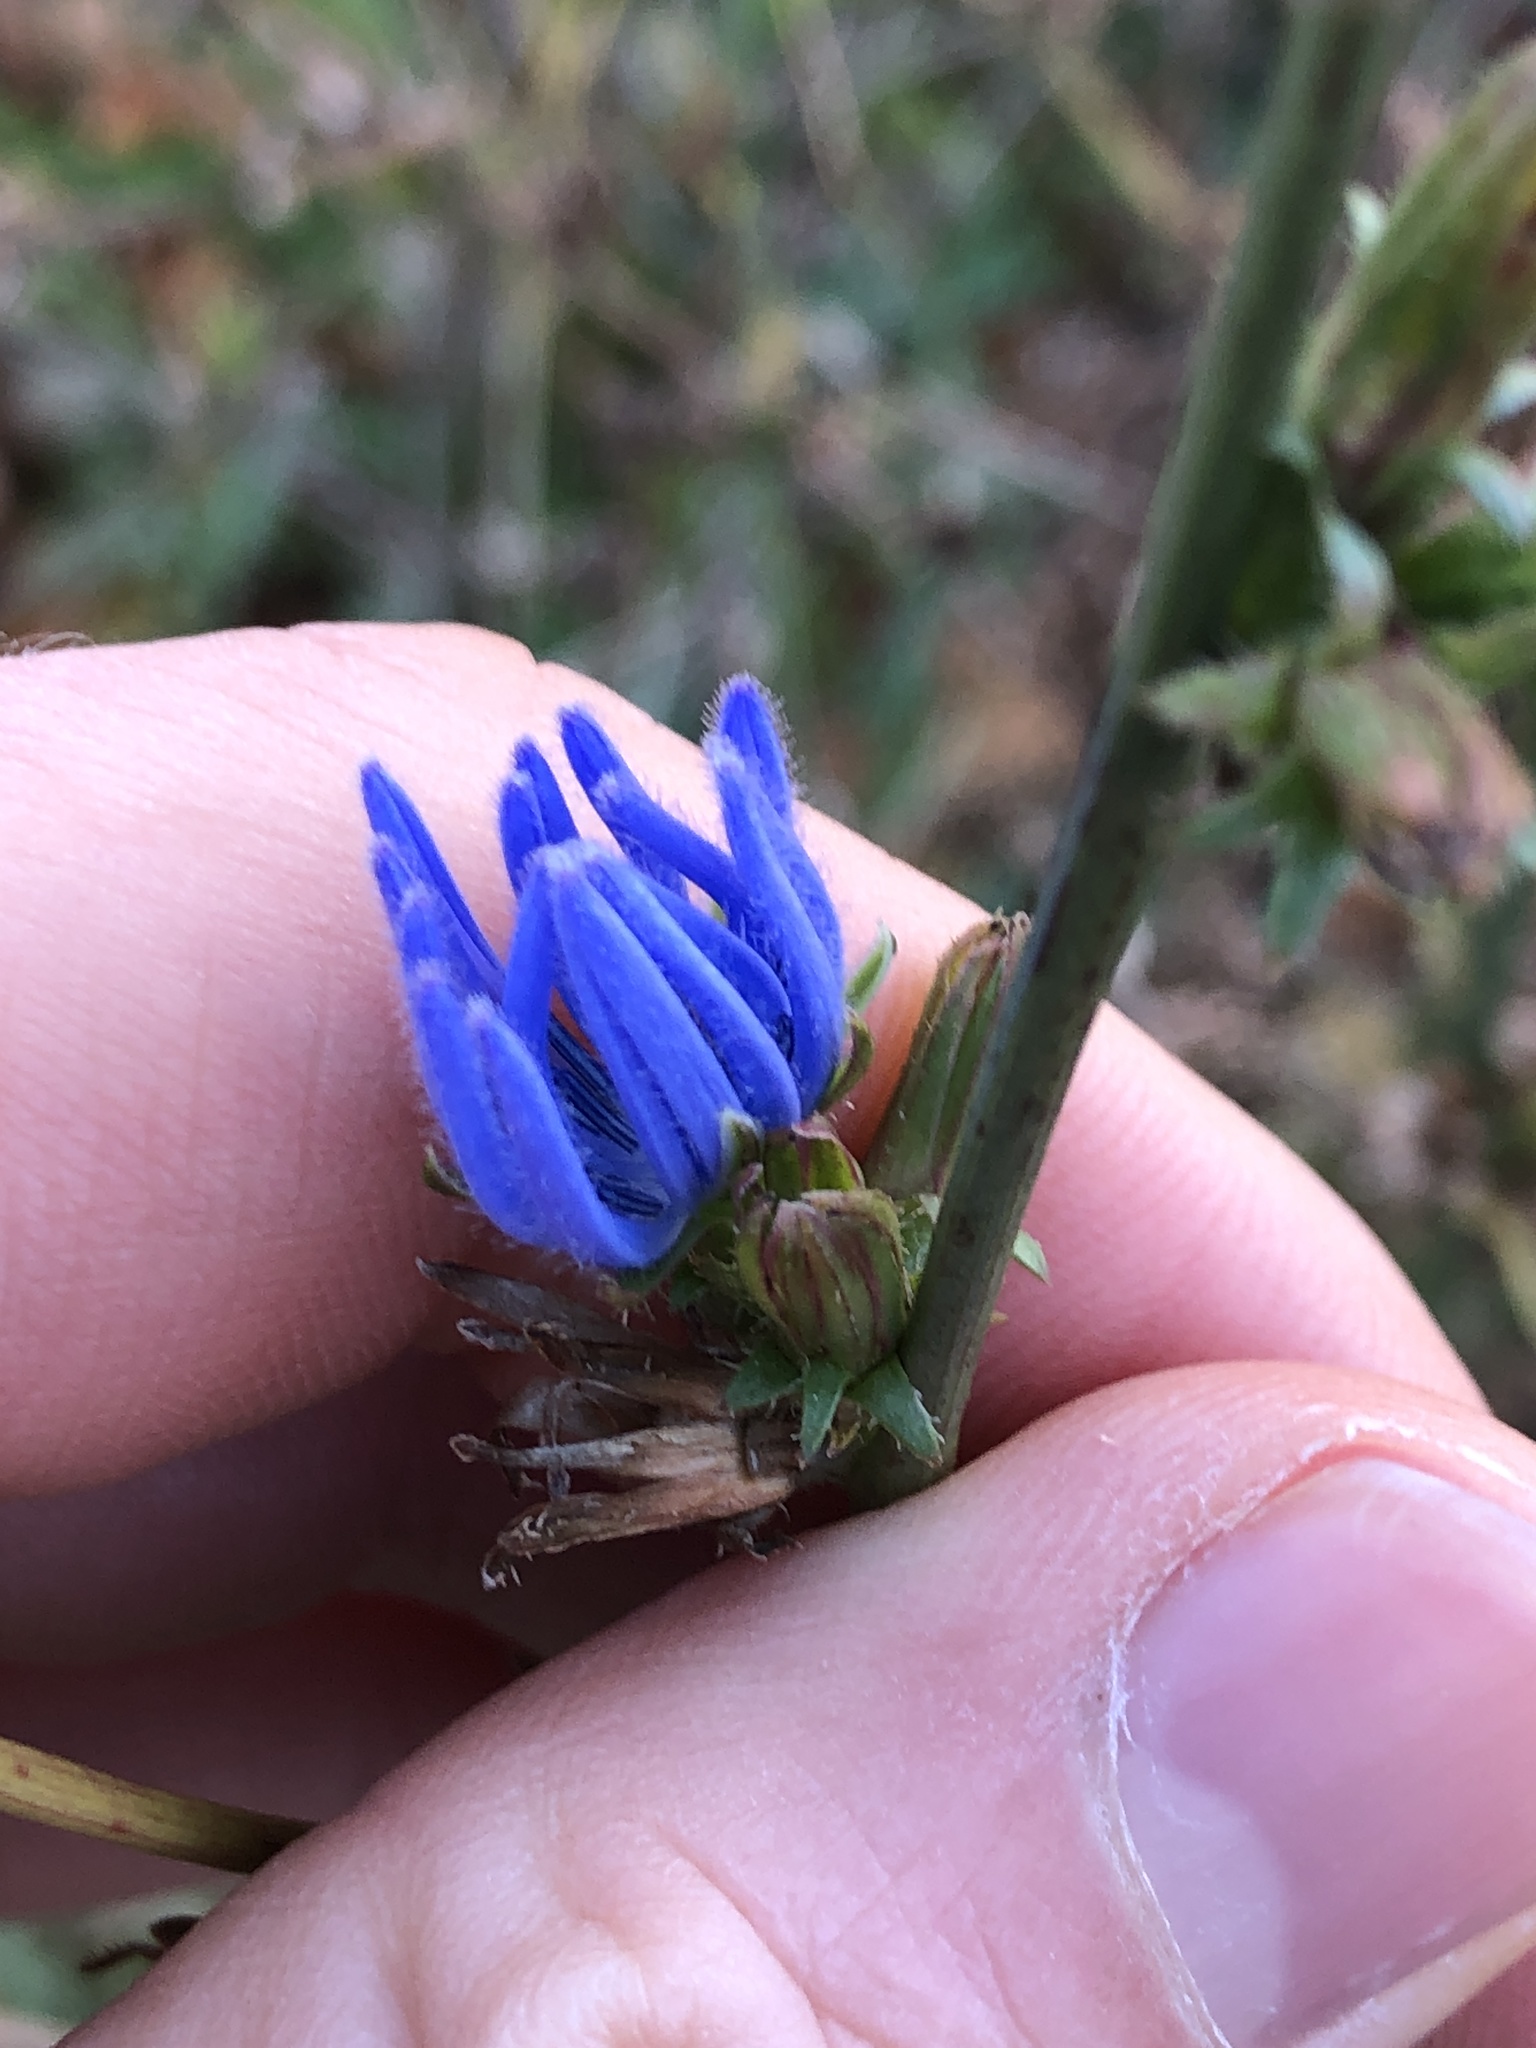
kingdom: Plantae
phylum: Tracheophyta
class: Magnoliopsida
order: Asterales
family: Asteraceae
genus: Cichorium
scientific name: Cichorium intybus
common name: Chicory
